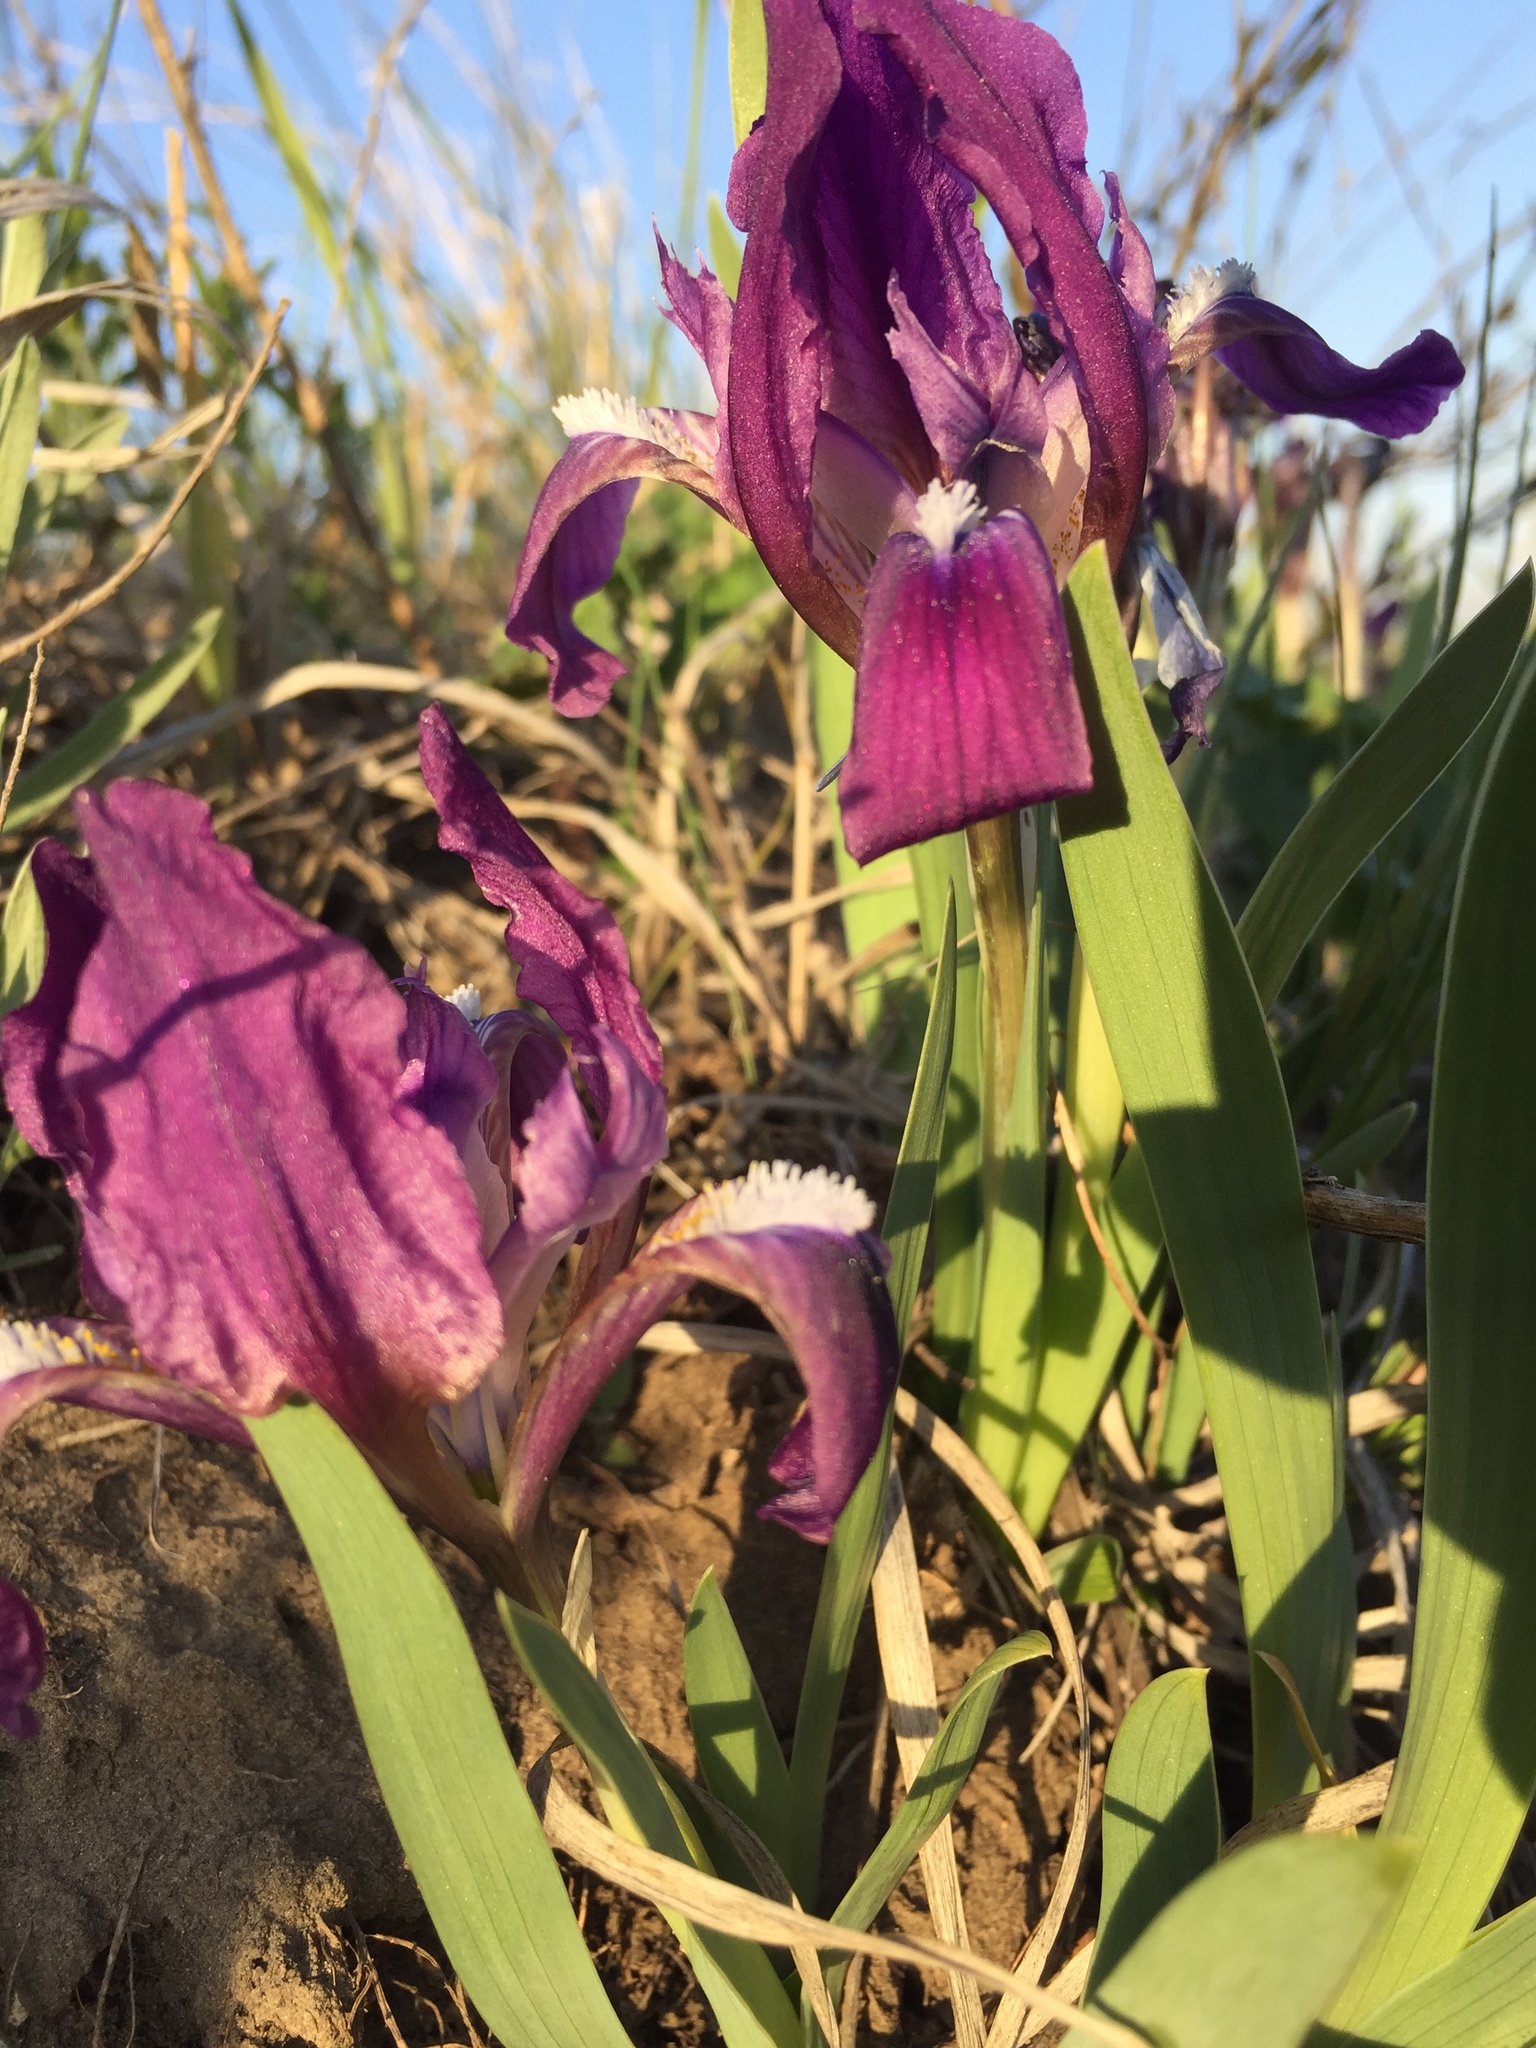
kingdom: Plantae
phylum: Tracheophyta
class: Liliopsida
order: Asparagales
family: Iridaceae
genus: Iris
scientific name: Iris pumila
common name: Dwarf iris
